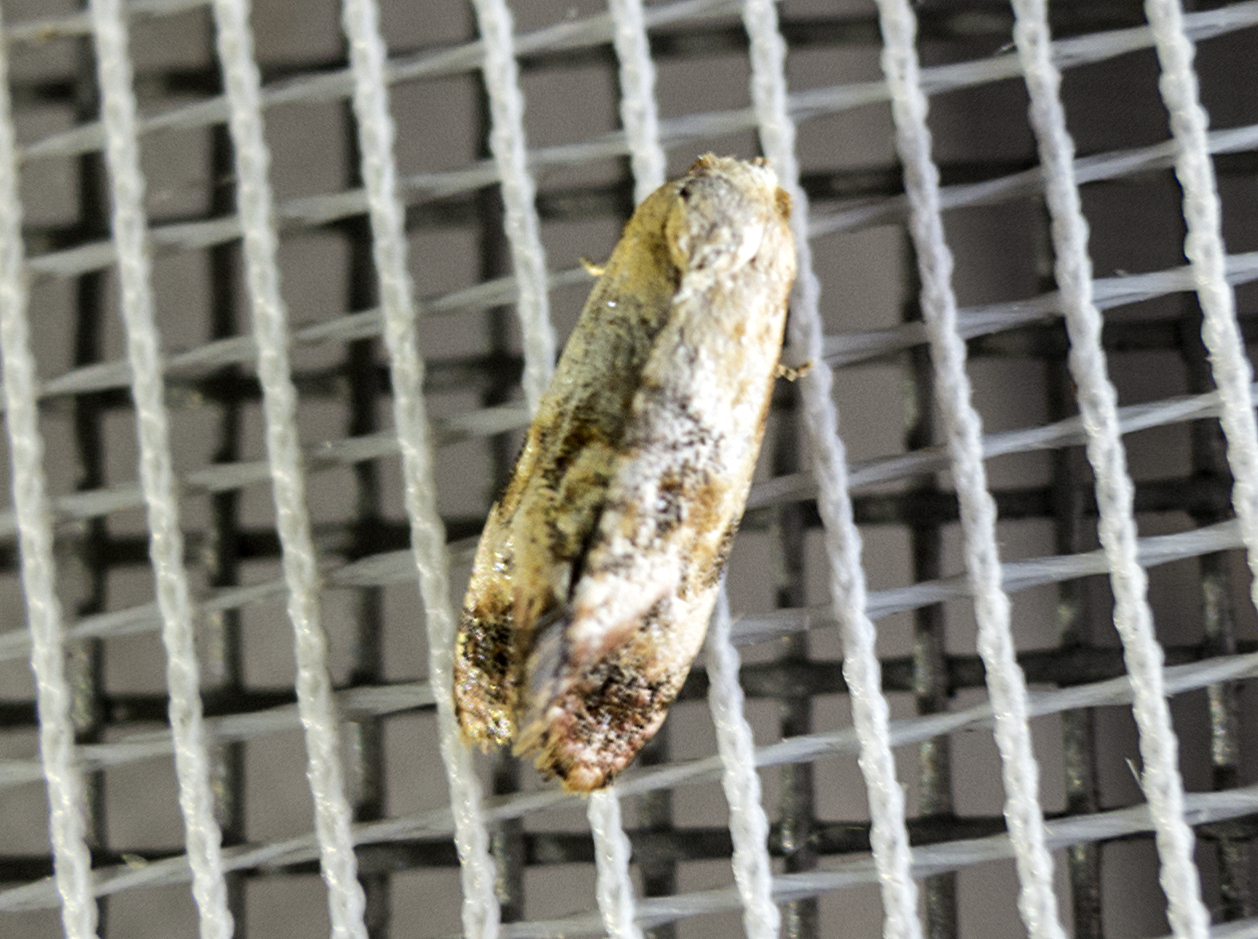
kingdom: Animalia
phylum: Arthropoda
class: Insecta
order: Lepidoptera
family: Tortricidae
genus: Cochylis
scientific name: Cochylis hybridella
